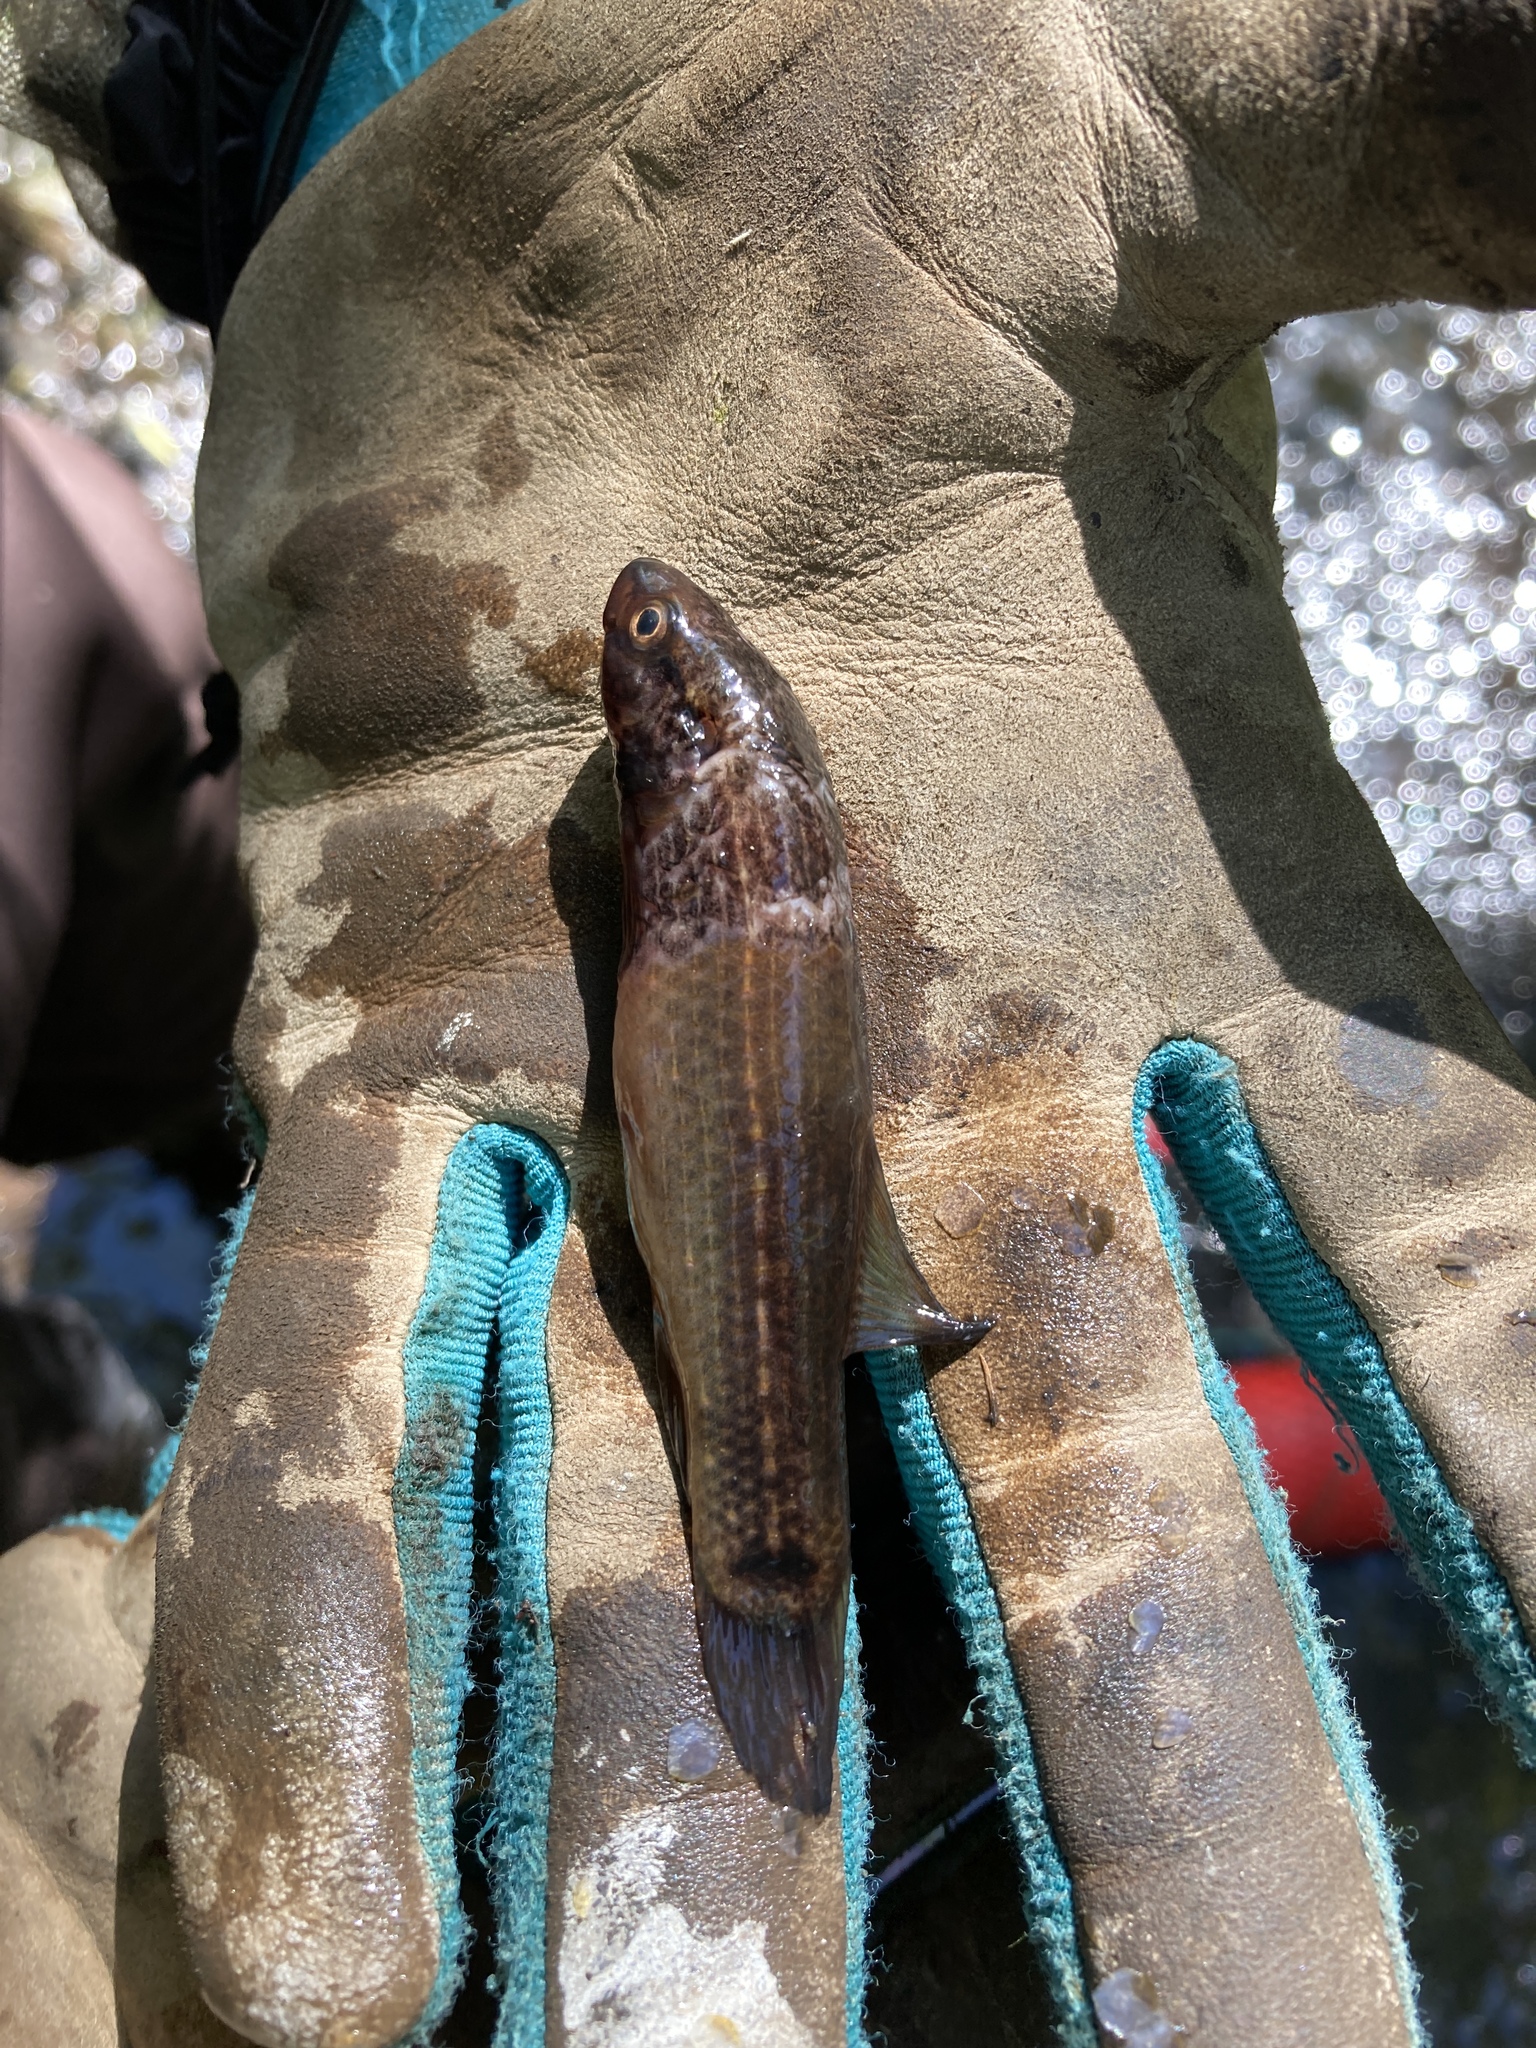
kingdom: Animalia
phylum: Chordata
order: Esociformes
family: Umbridae
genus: Umbra
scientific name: Umbra pygmaea
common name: Eastern mudminnow
